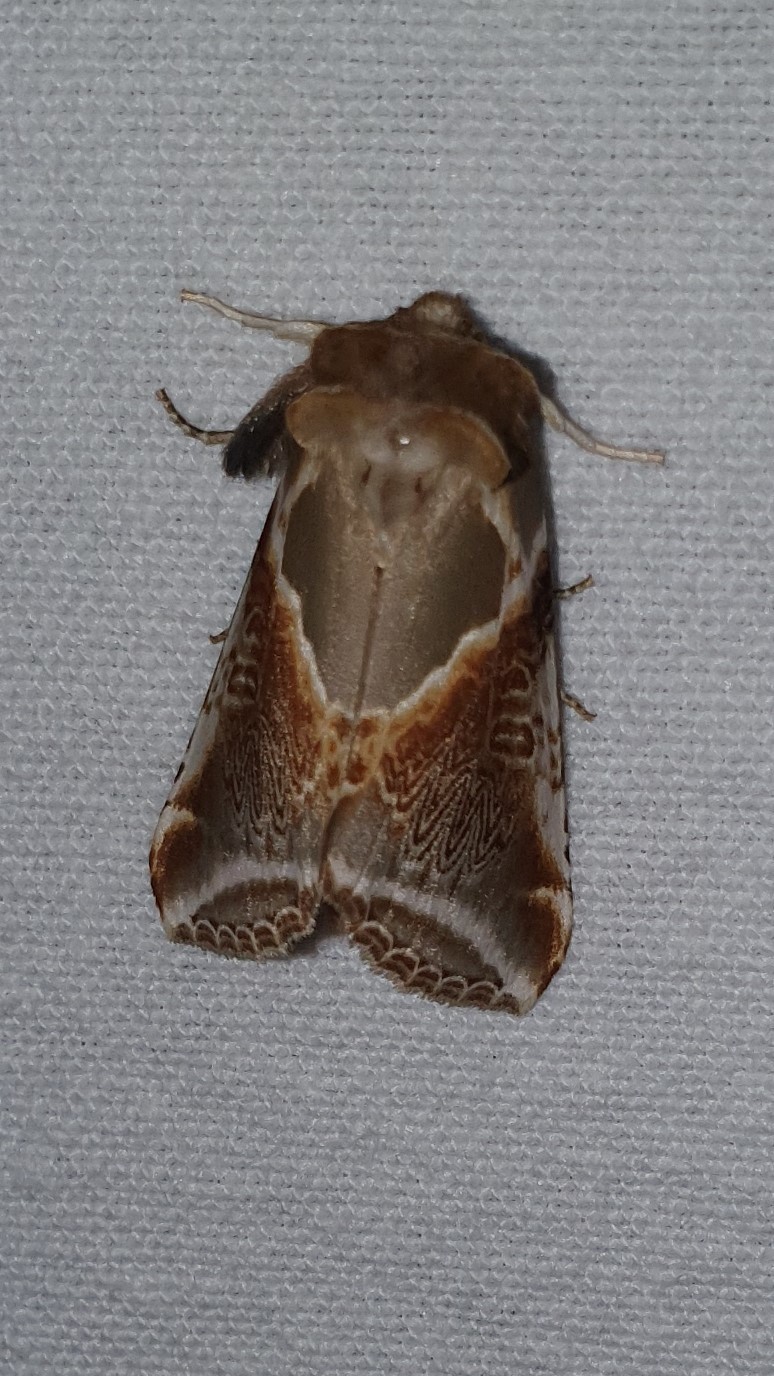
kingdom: Animalia
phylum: Arthropoda
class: Insecta
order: Lepidoptera
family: Drepanidae
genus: Habrosyne
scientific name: Habrosyne pyritoides
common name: Buff arches
